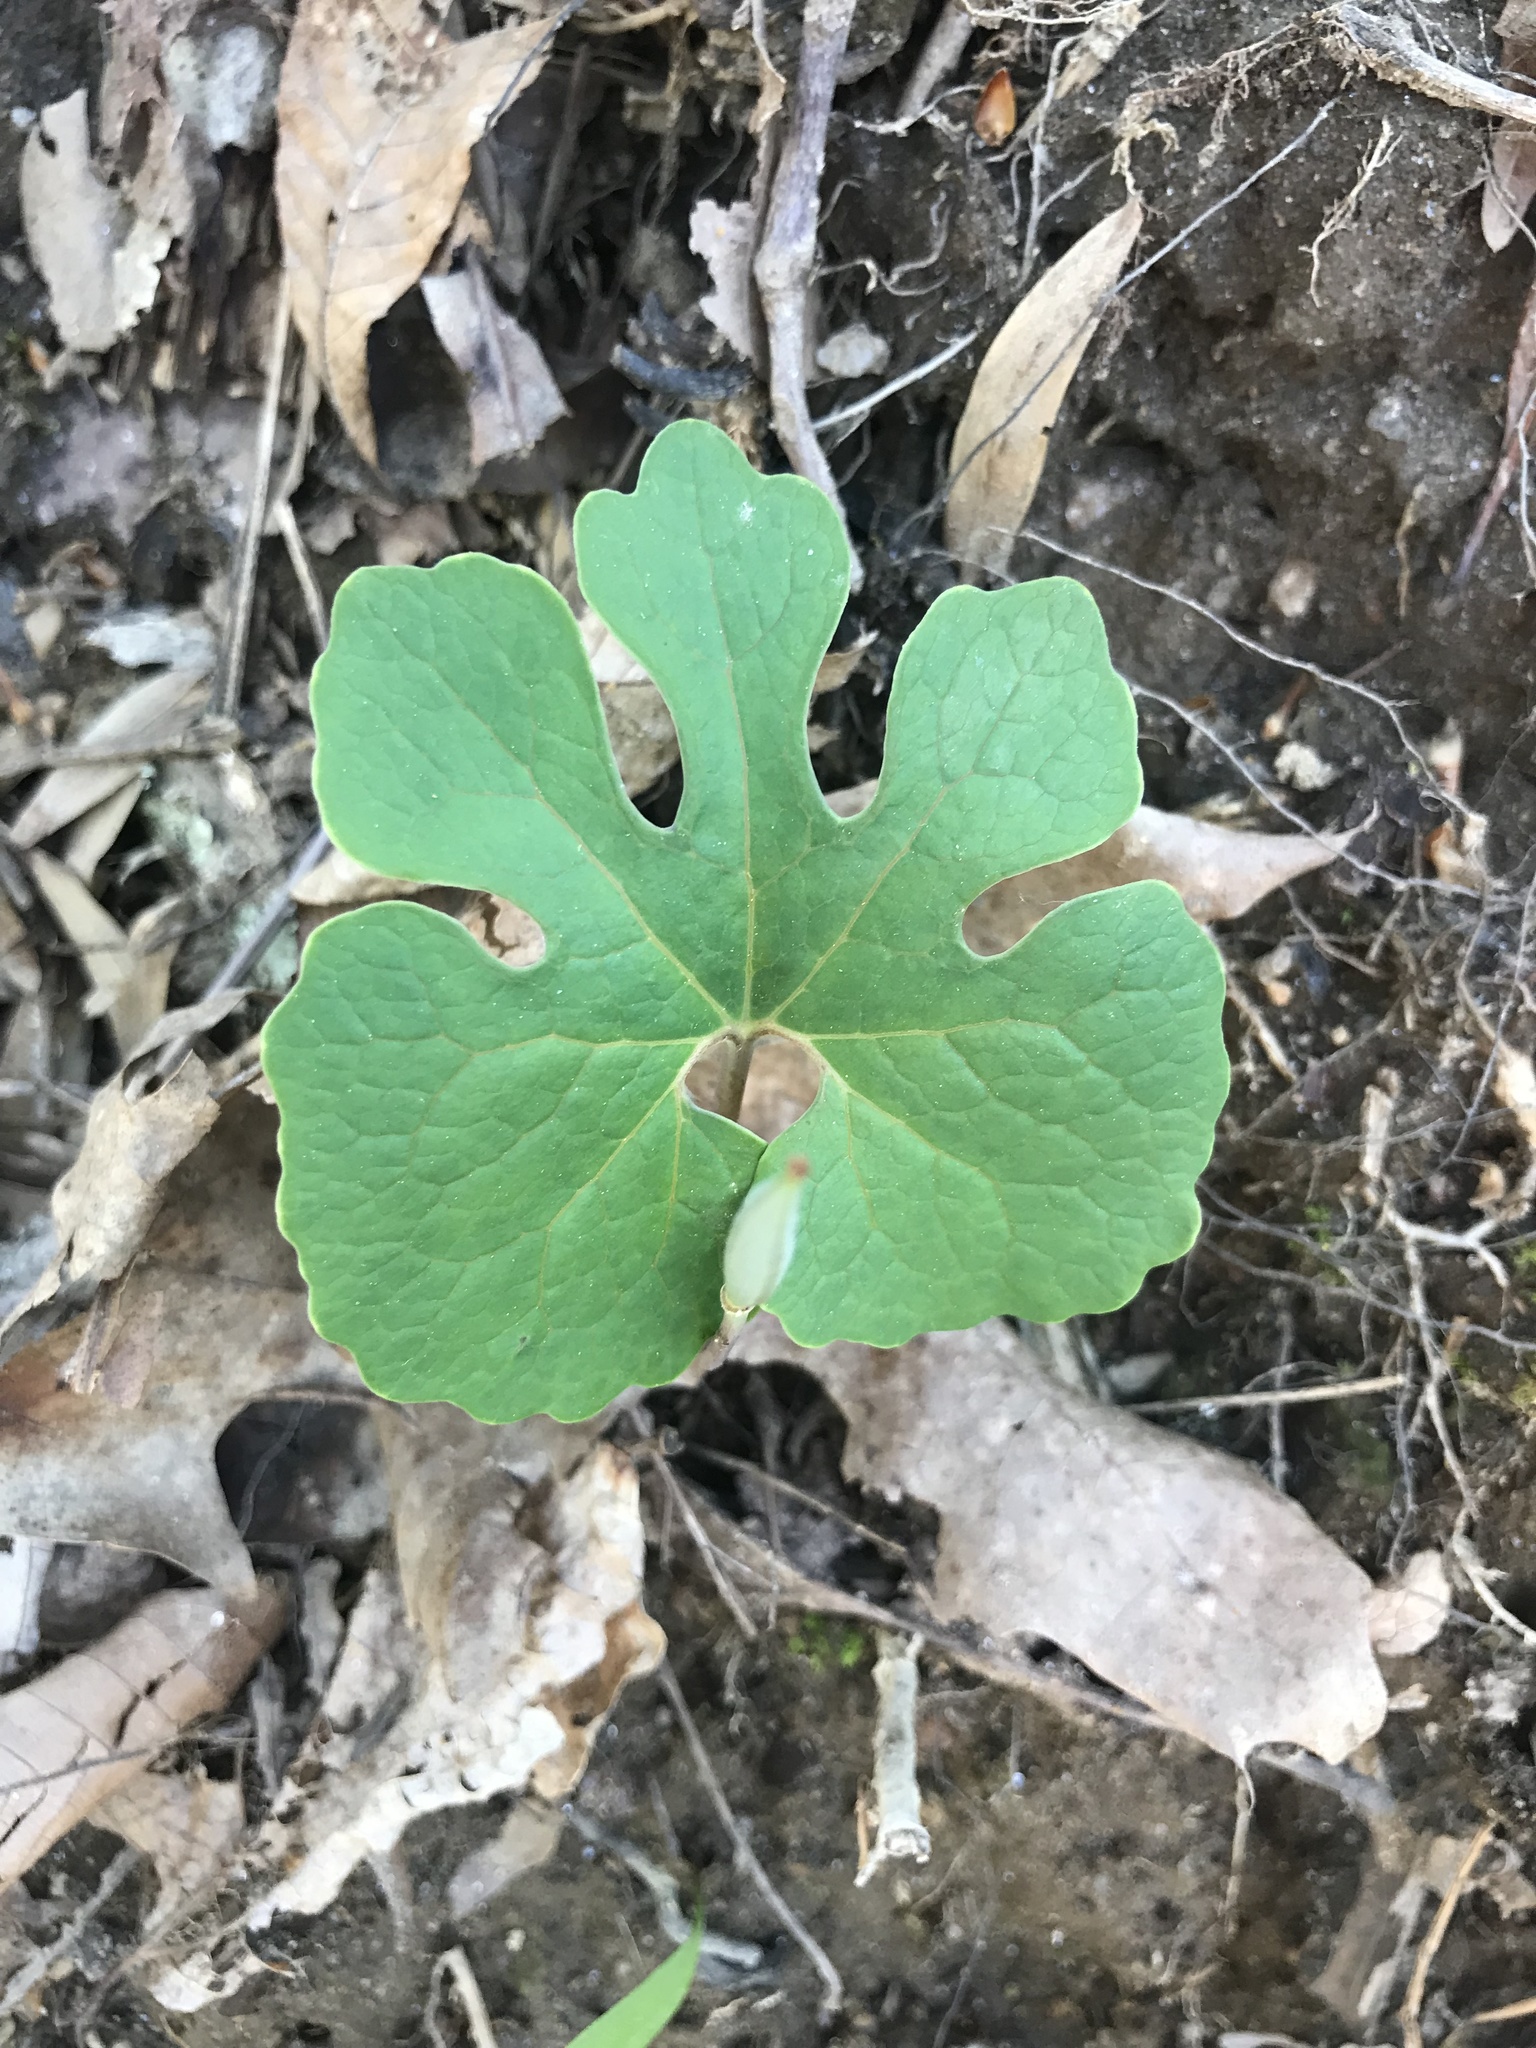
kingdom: Plantae
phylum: Tracheophyta
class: Magnoliopsida
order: Ranunculales
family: Papaveraceae
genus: Sanguinaria
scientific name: Sanguinaria canadensis
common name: Bloodroot
